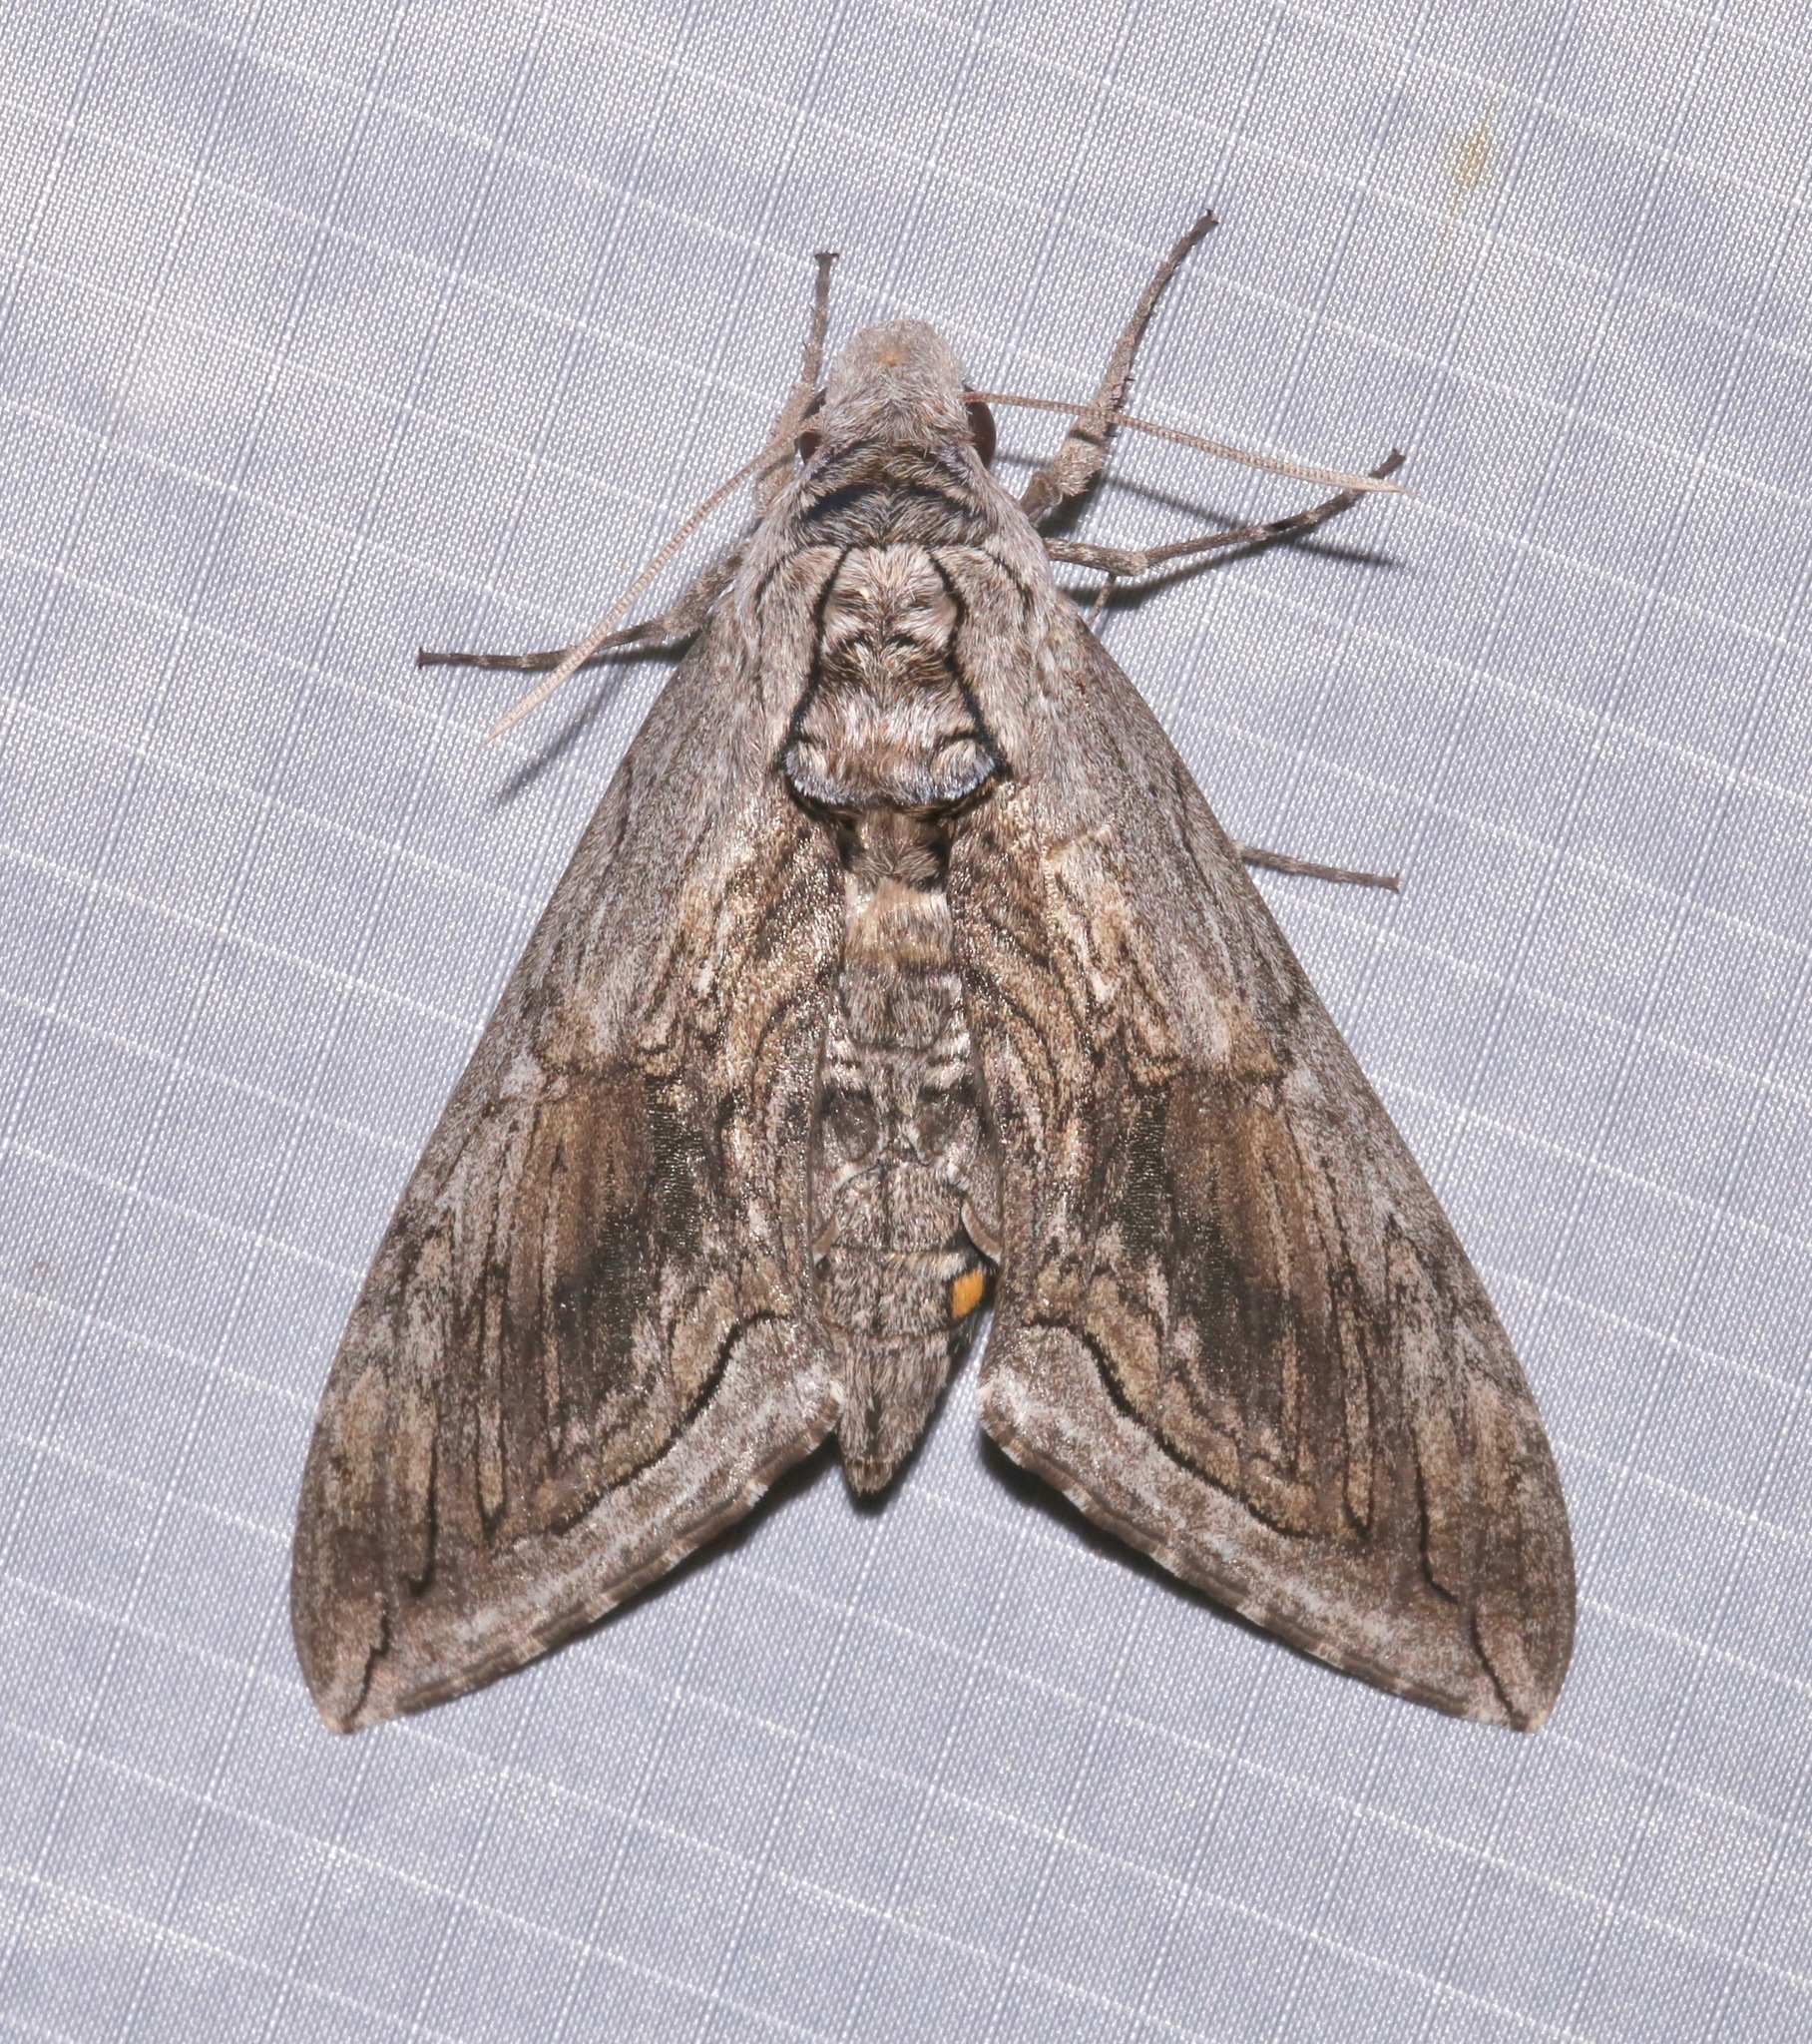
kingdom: Animalia
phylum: Arthropoda
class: Insecta
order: Lepidoptera
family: Sphingidae
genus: Manduca
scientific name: Manduca quinquemaculatus
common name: Five-spotted hawk-moth
